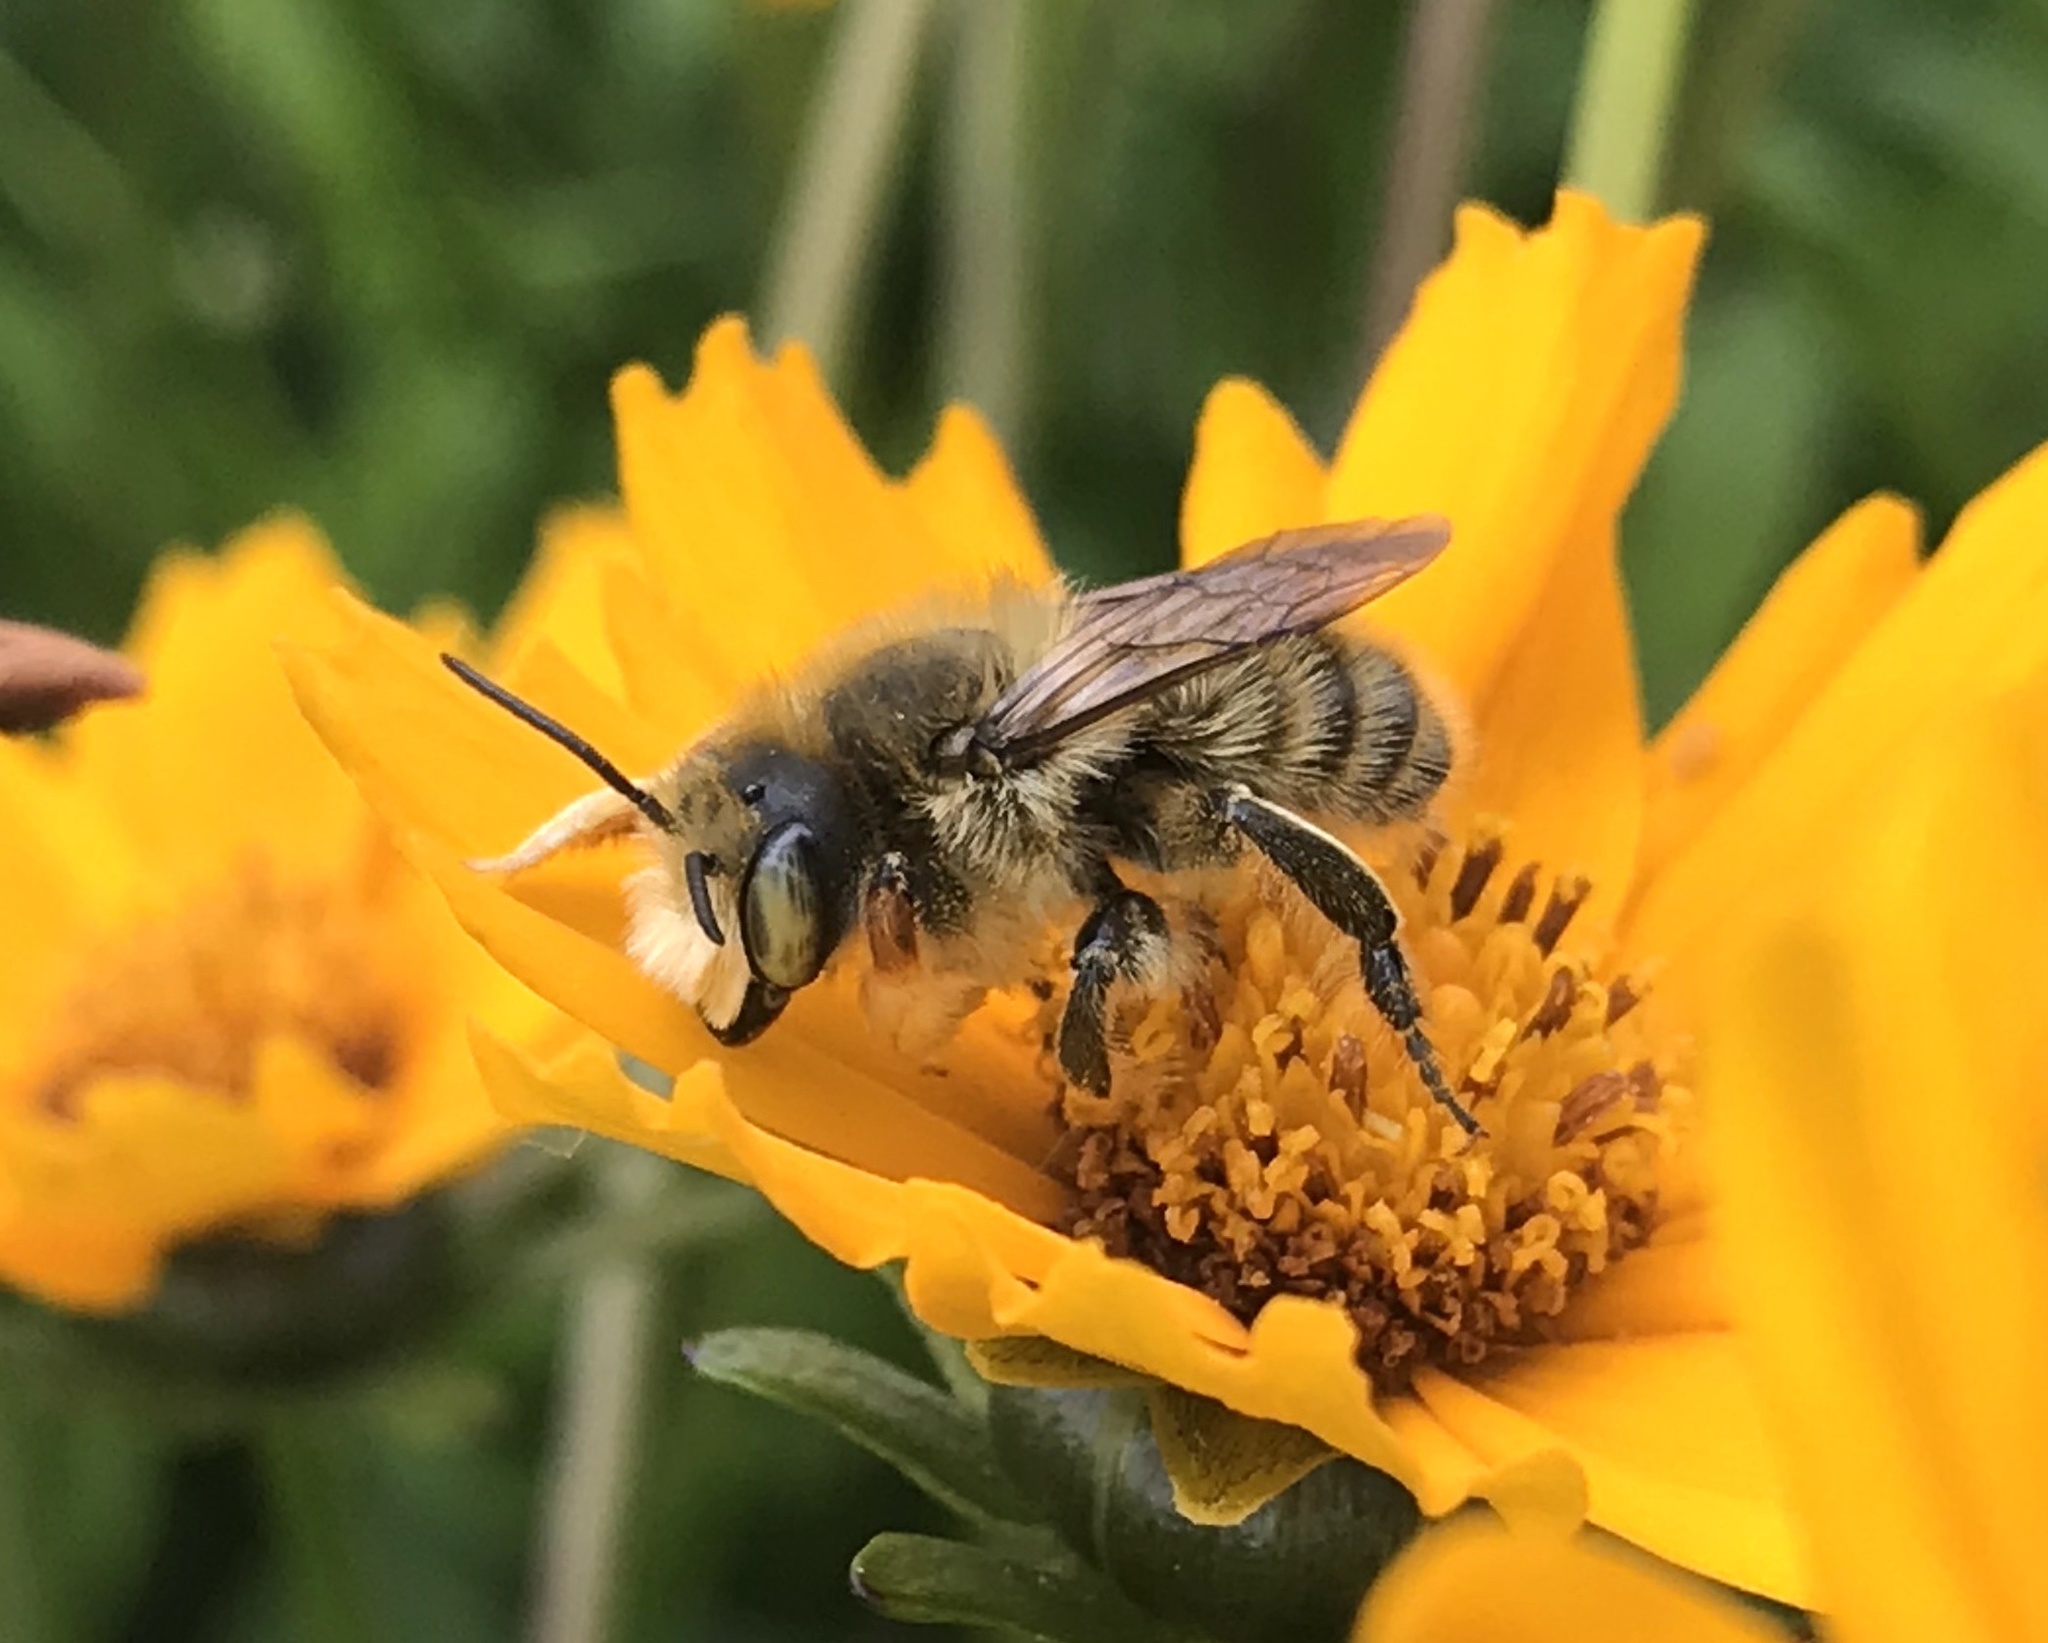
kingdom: Animalia
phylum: Arthropoda
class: Insecta
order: Hymenoptera
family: Megachilidae
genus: Megachile
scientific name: Megachile perihirta
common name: Western leafcutter
